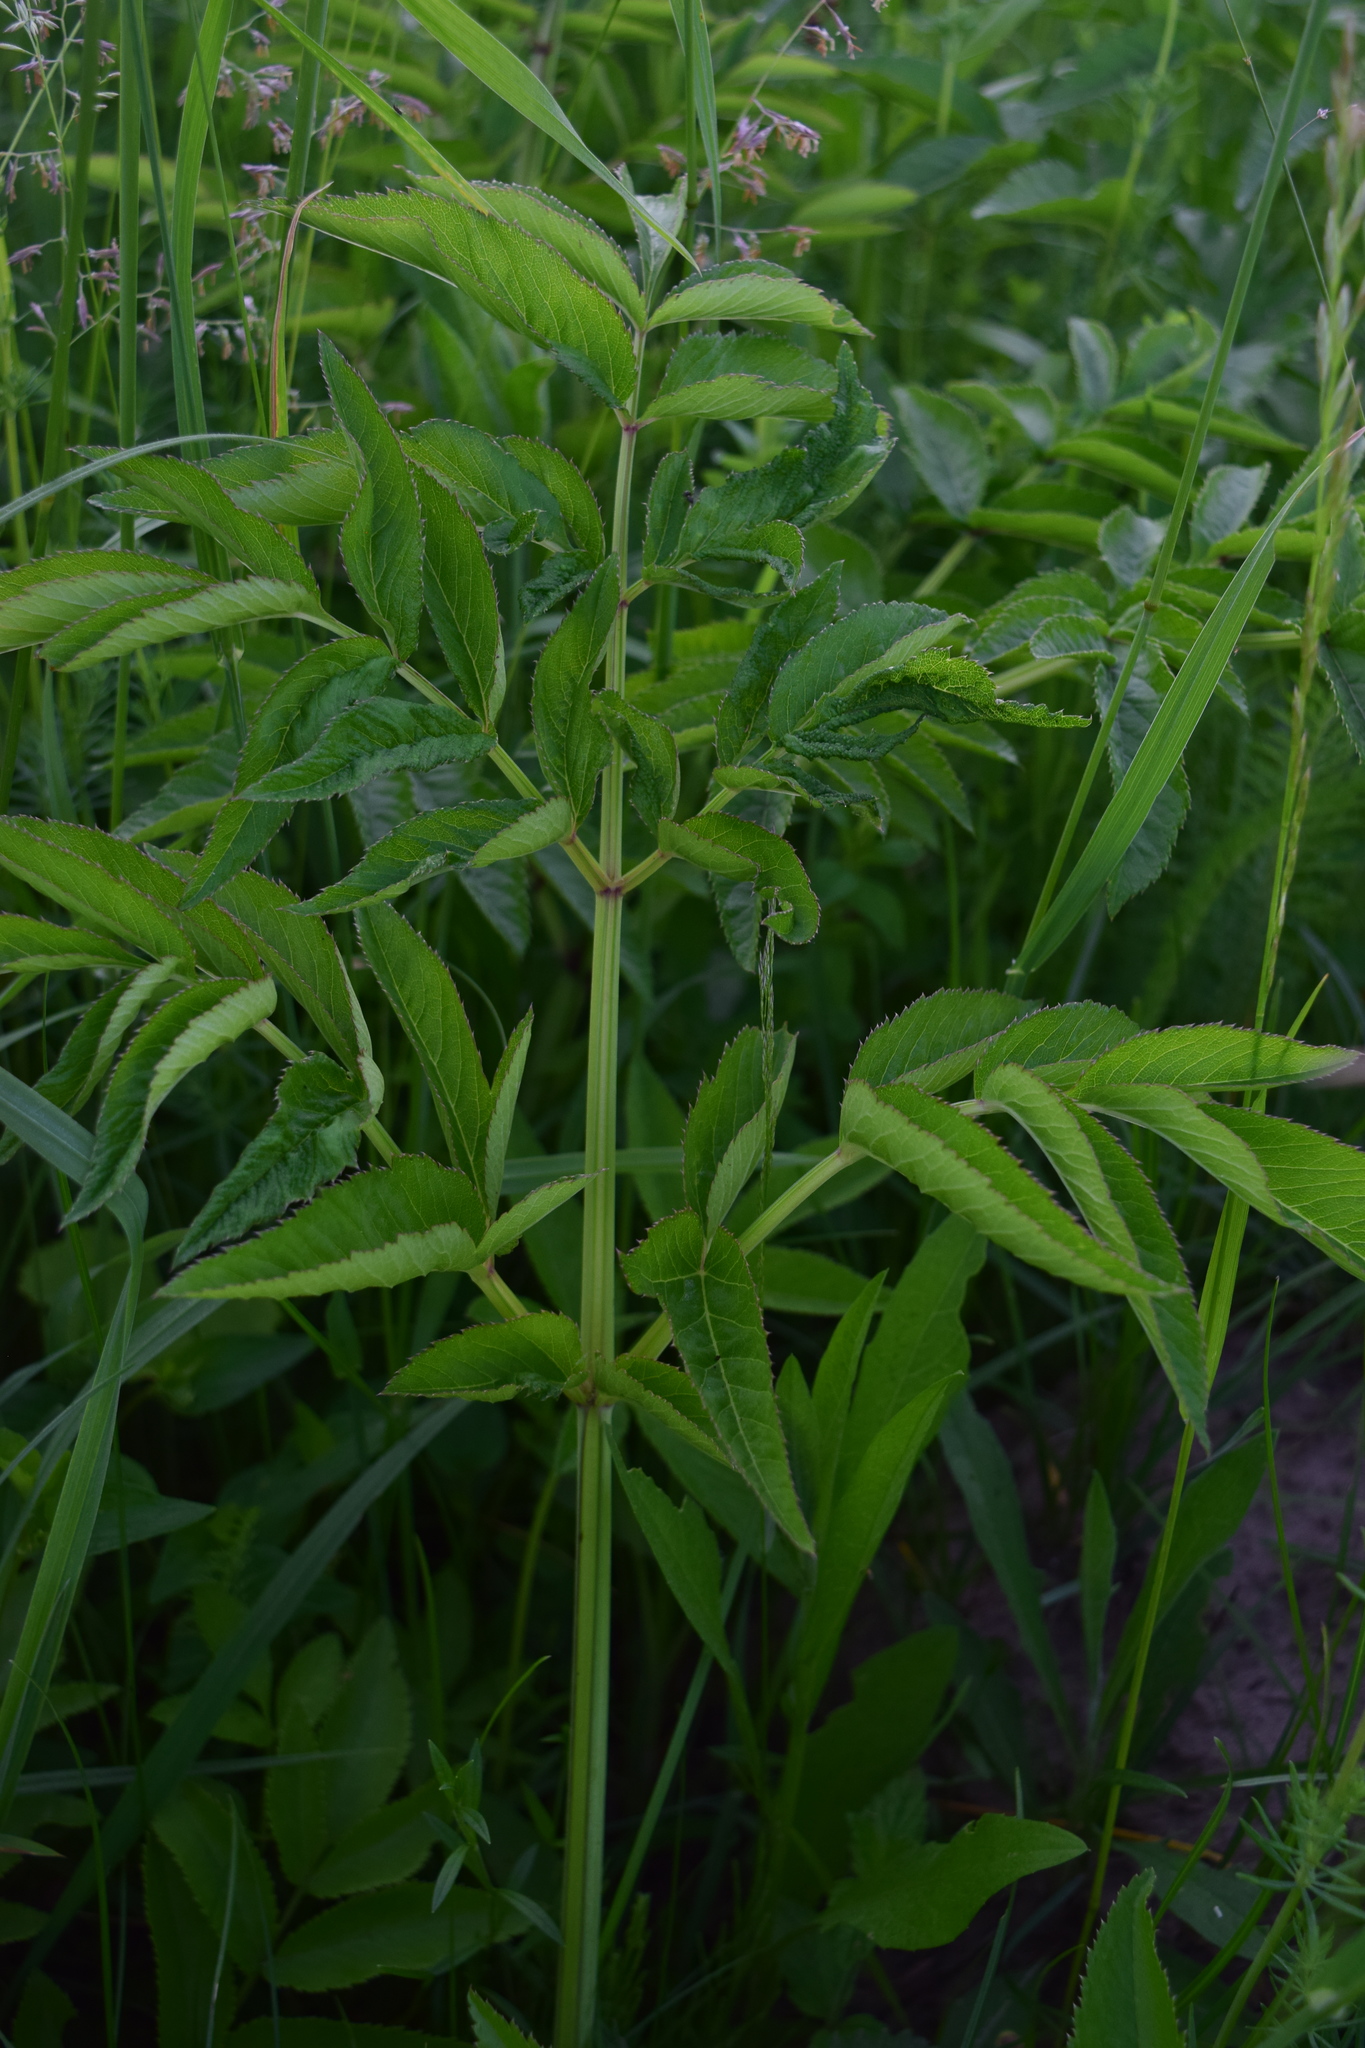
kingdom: Plantae
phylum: Tracheophyta
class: Magnoliopsida
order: Apiales
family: Apiaceae
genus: Angelica
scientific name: Angelica sylvestris
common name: Wild angelica
